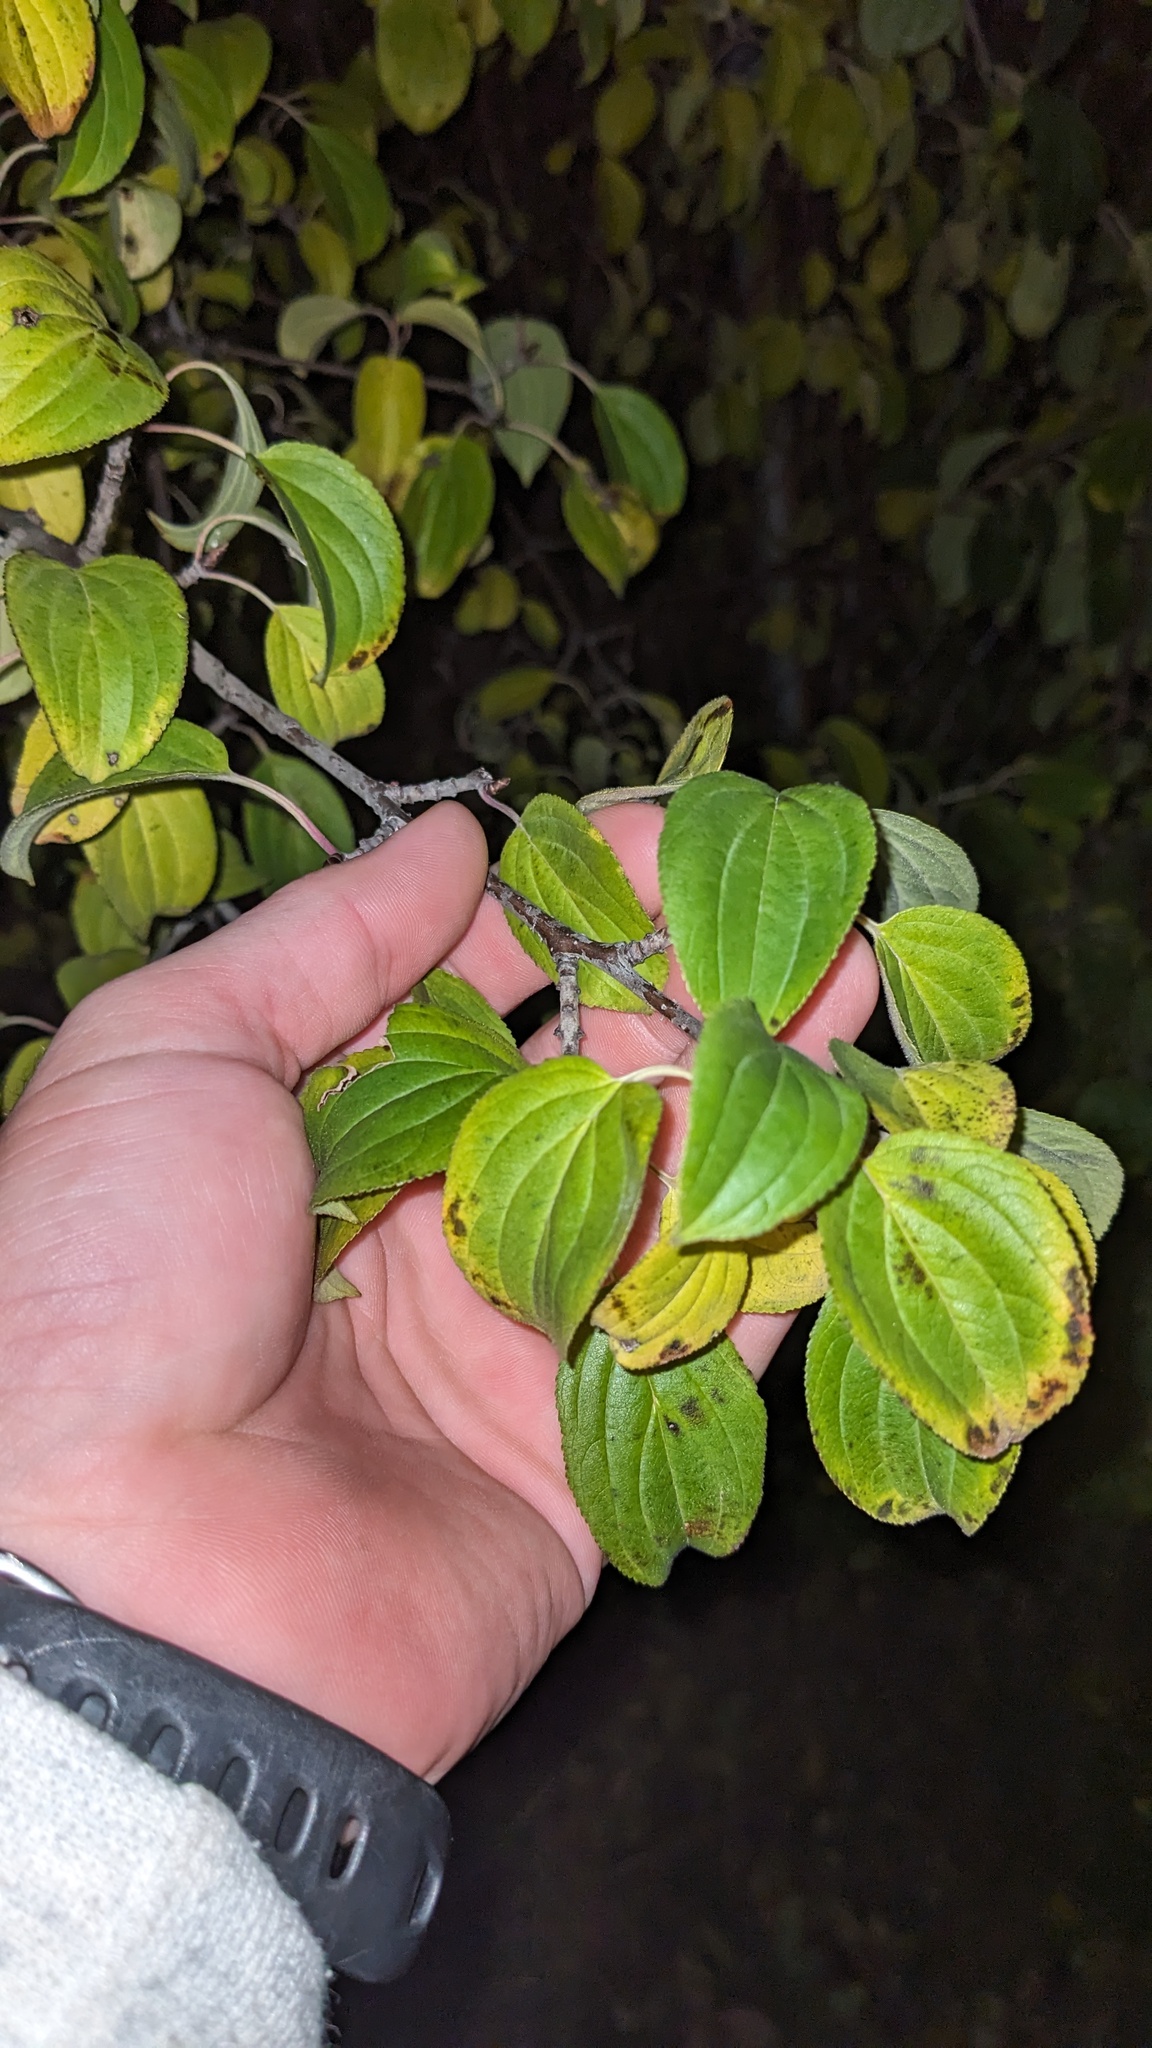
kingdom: Plantae
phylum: Tracheophyta
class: Magnoliopsida
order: Rosales
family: Rhamnaceae
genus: Rhamnus
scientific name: Rhamnus cathartica
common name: Common buckthorn
